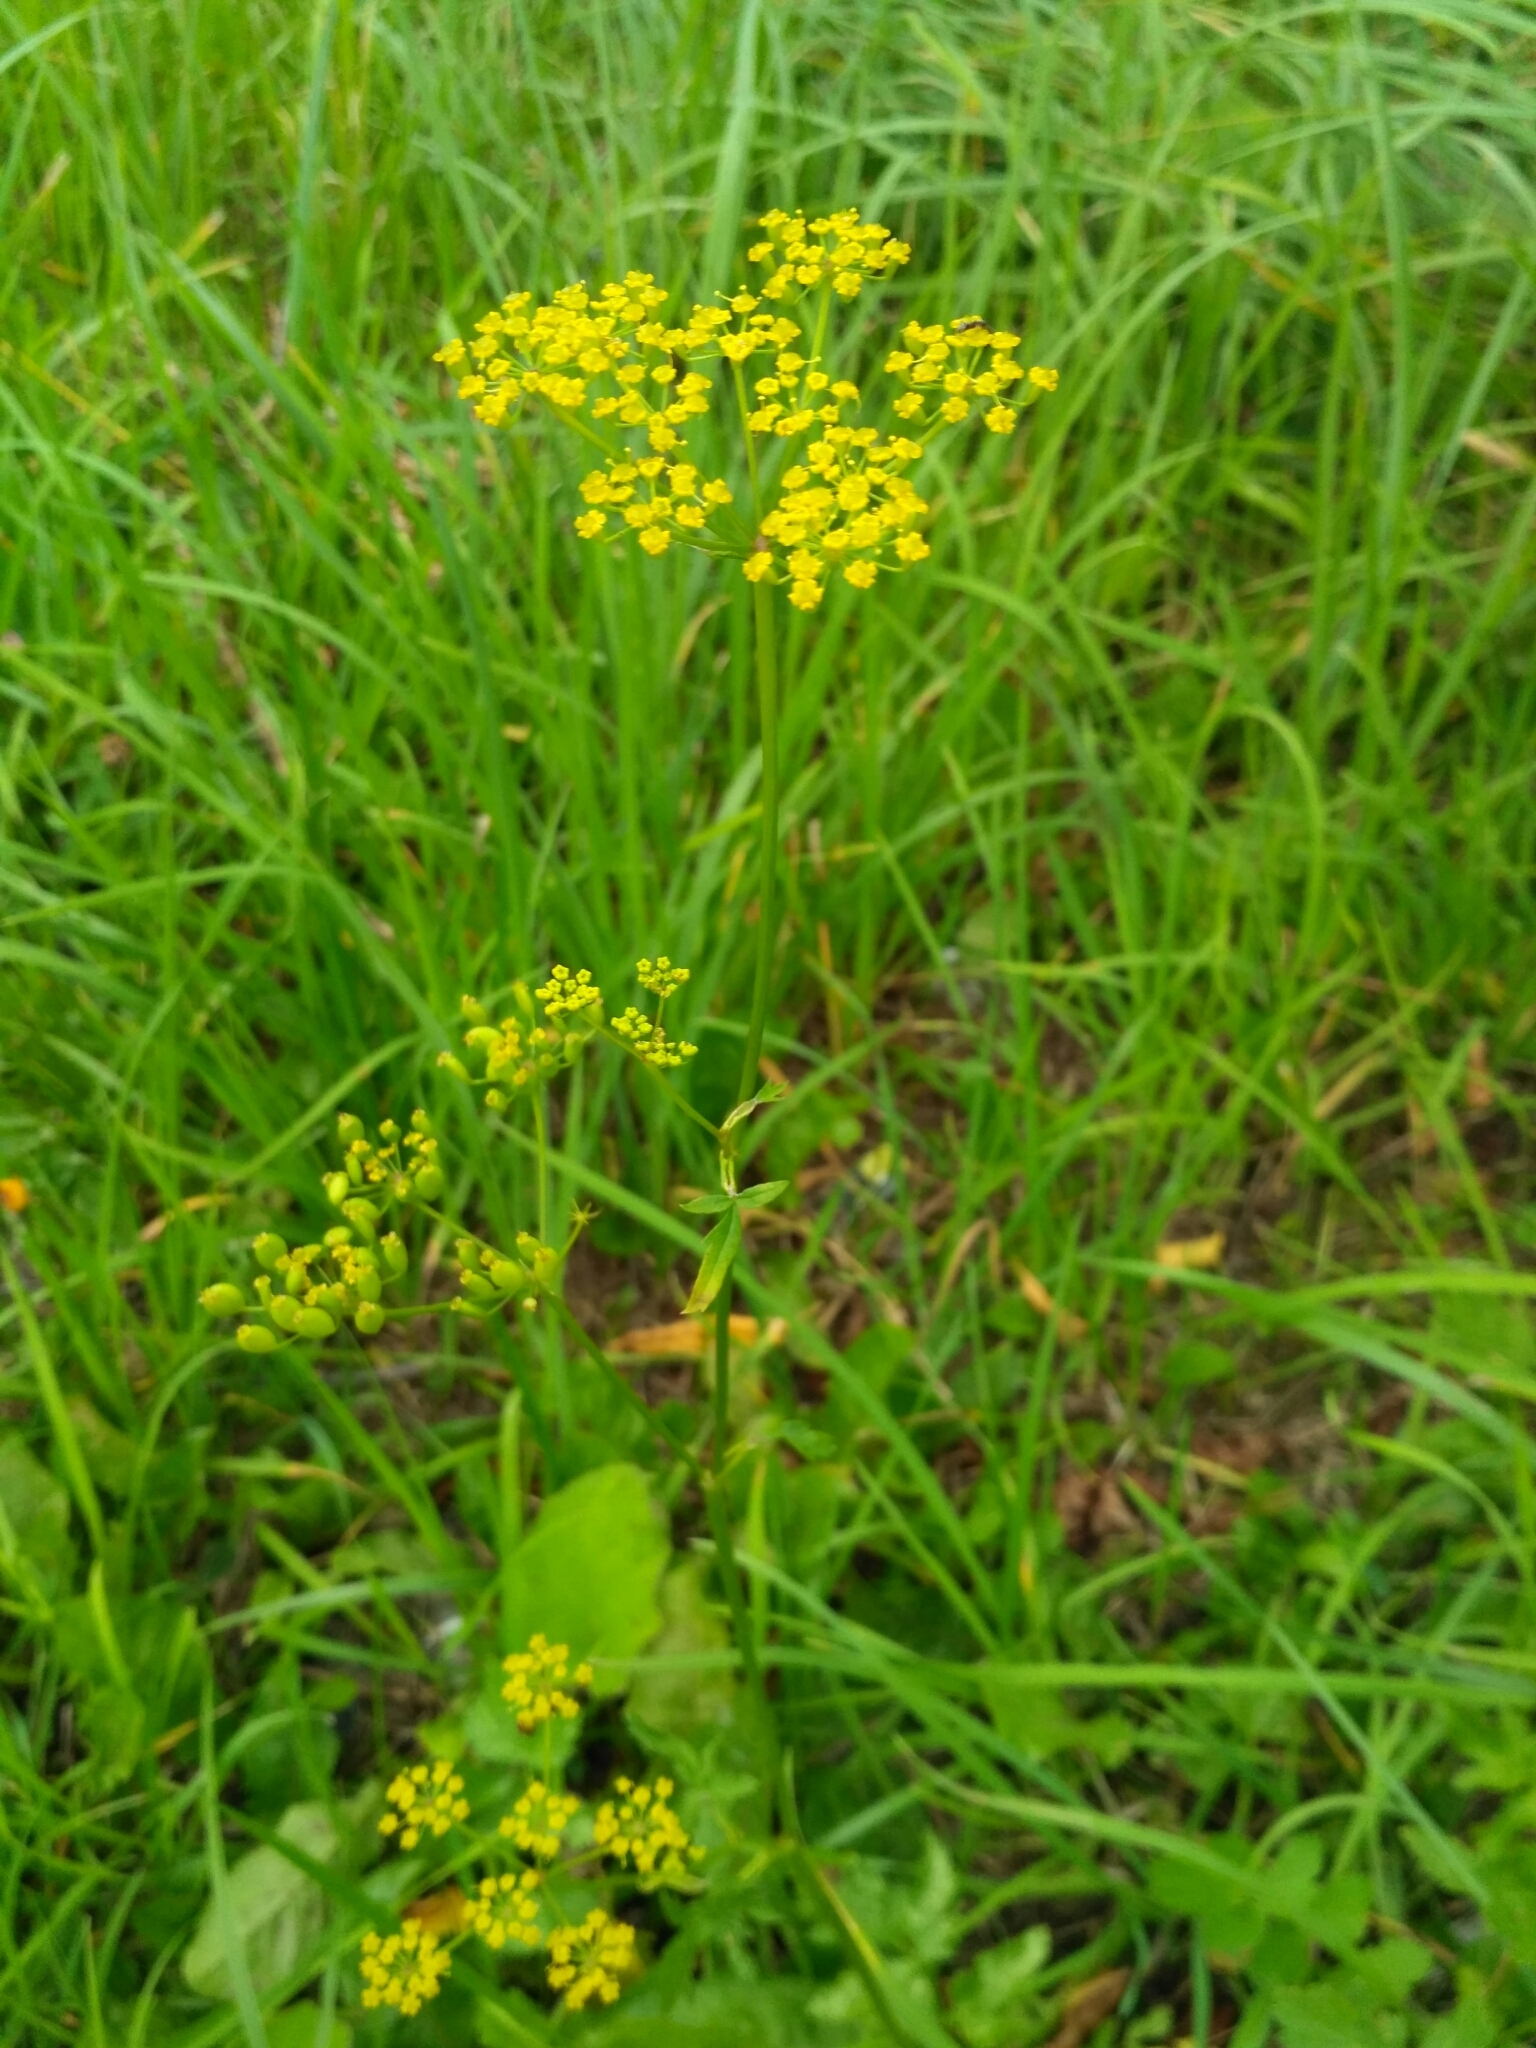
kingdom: Plantae
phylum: Tracheophyta
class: Magnoliopsida
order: Apiales
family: Apiaceae
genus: Pastinaca
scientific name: Pastinaca sativa
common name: Wild parsnip
